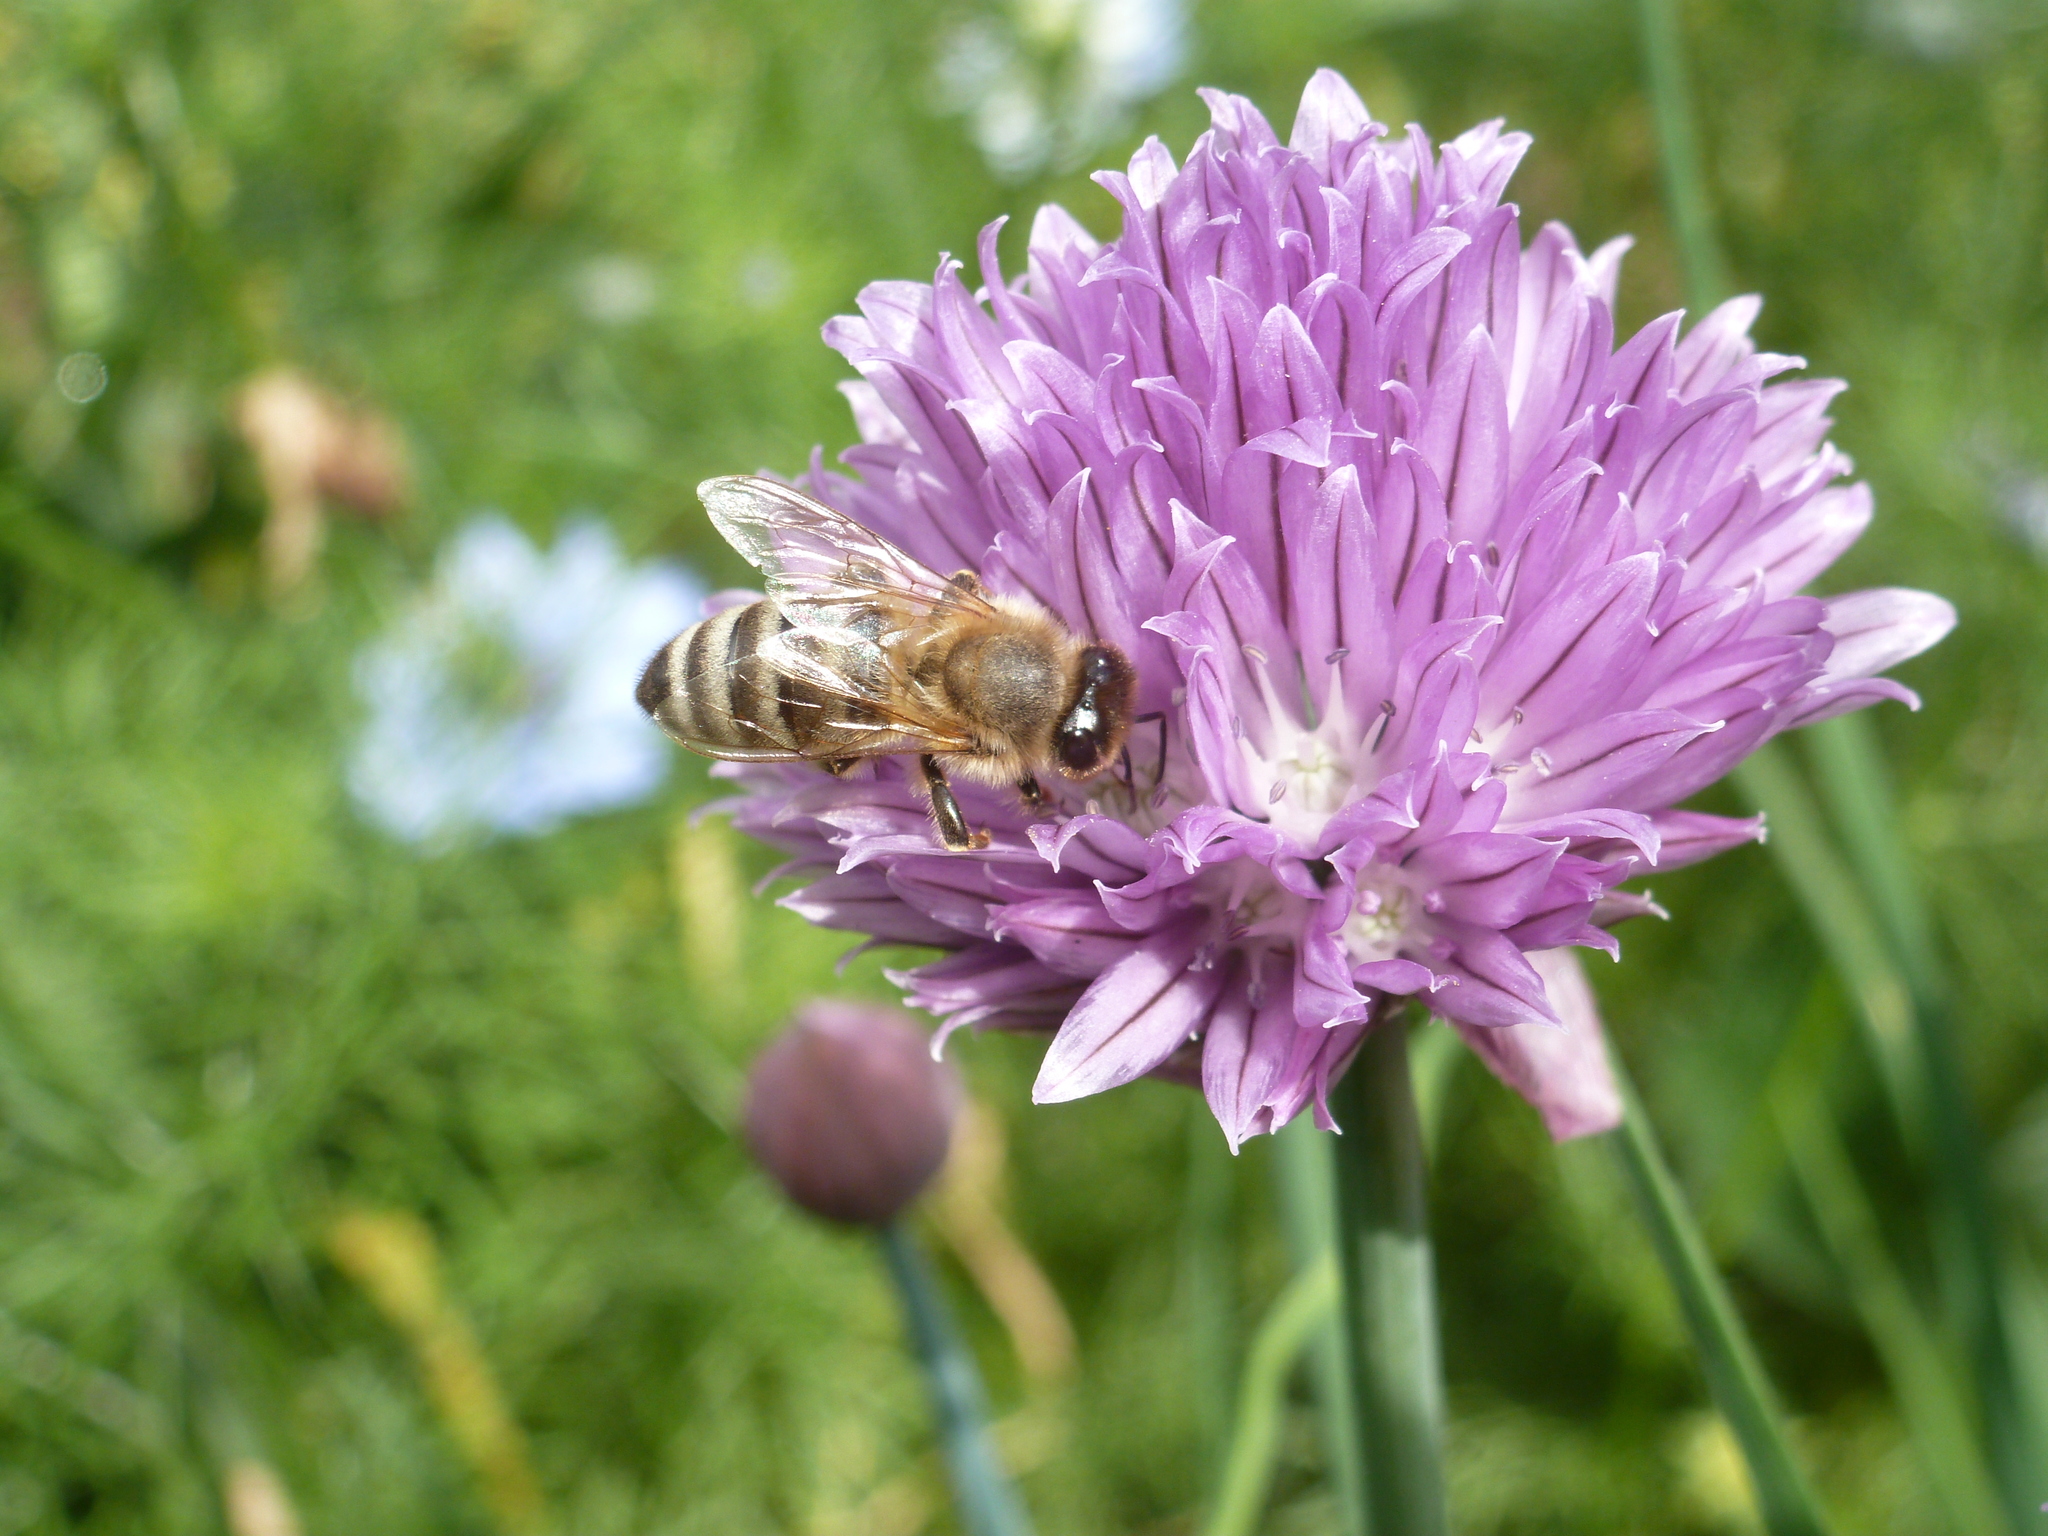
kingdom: Animalia
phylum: Arthropoda
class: Insecta
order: Hymenoptera
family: Apidae
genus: Apis
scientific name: Apis mellifera
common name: Honey bee
